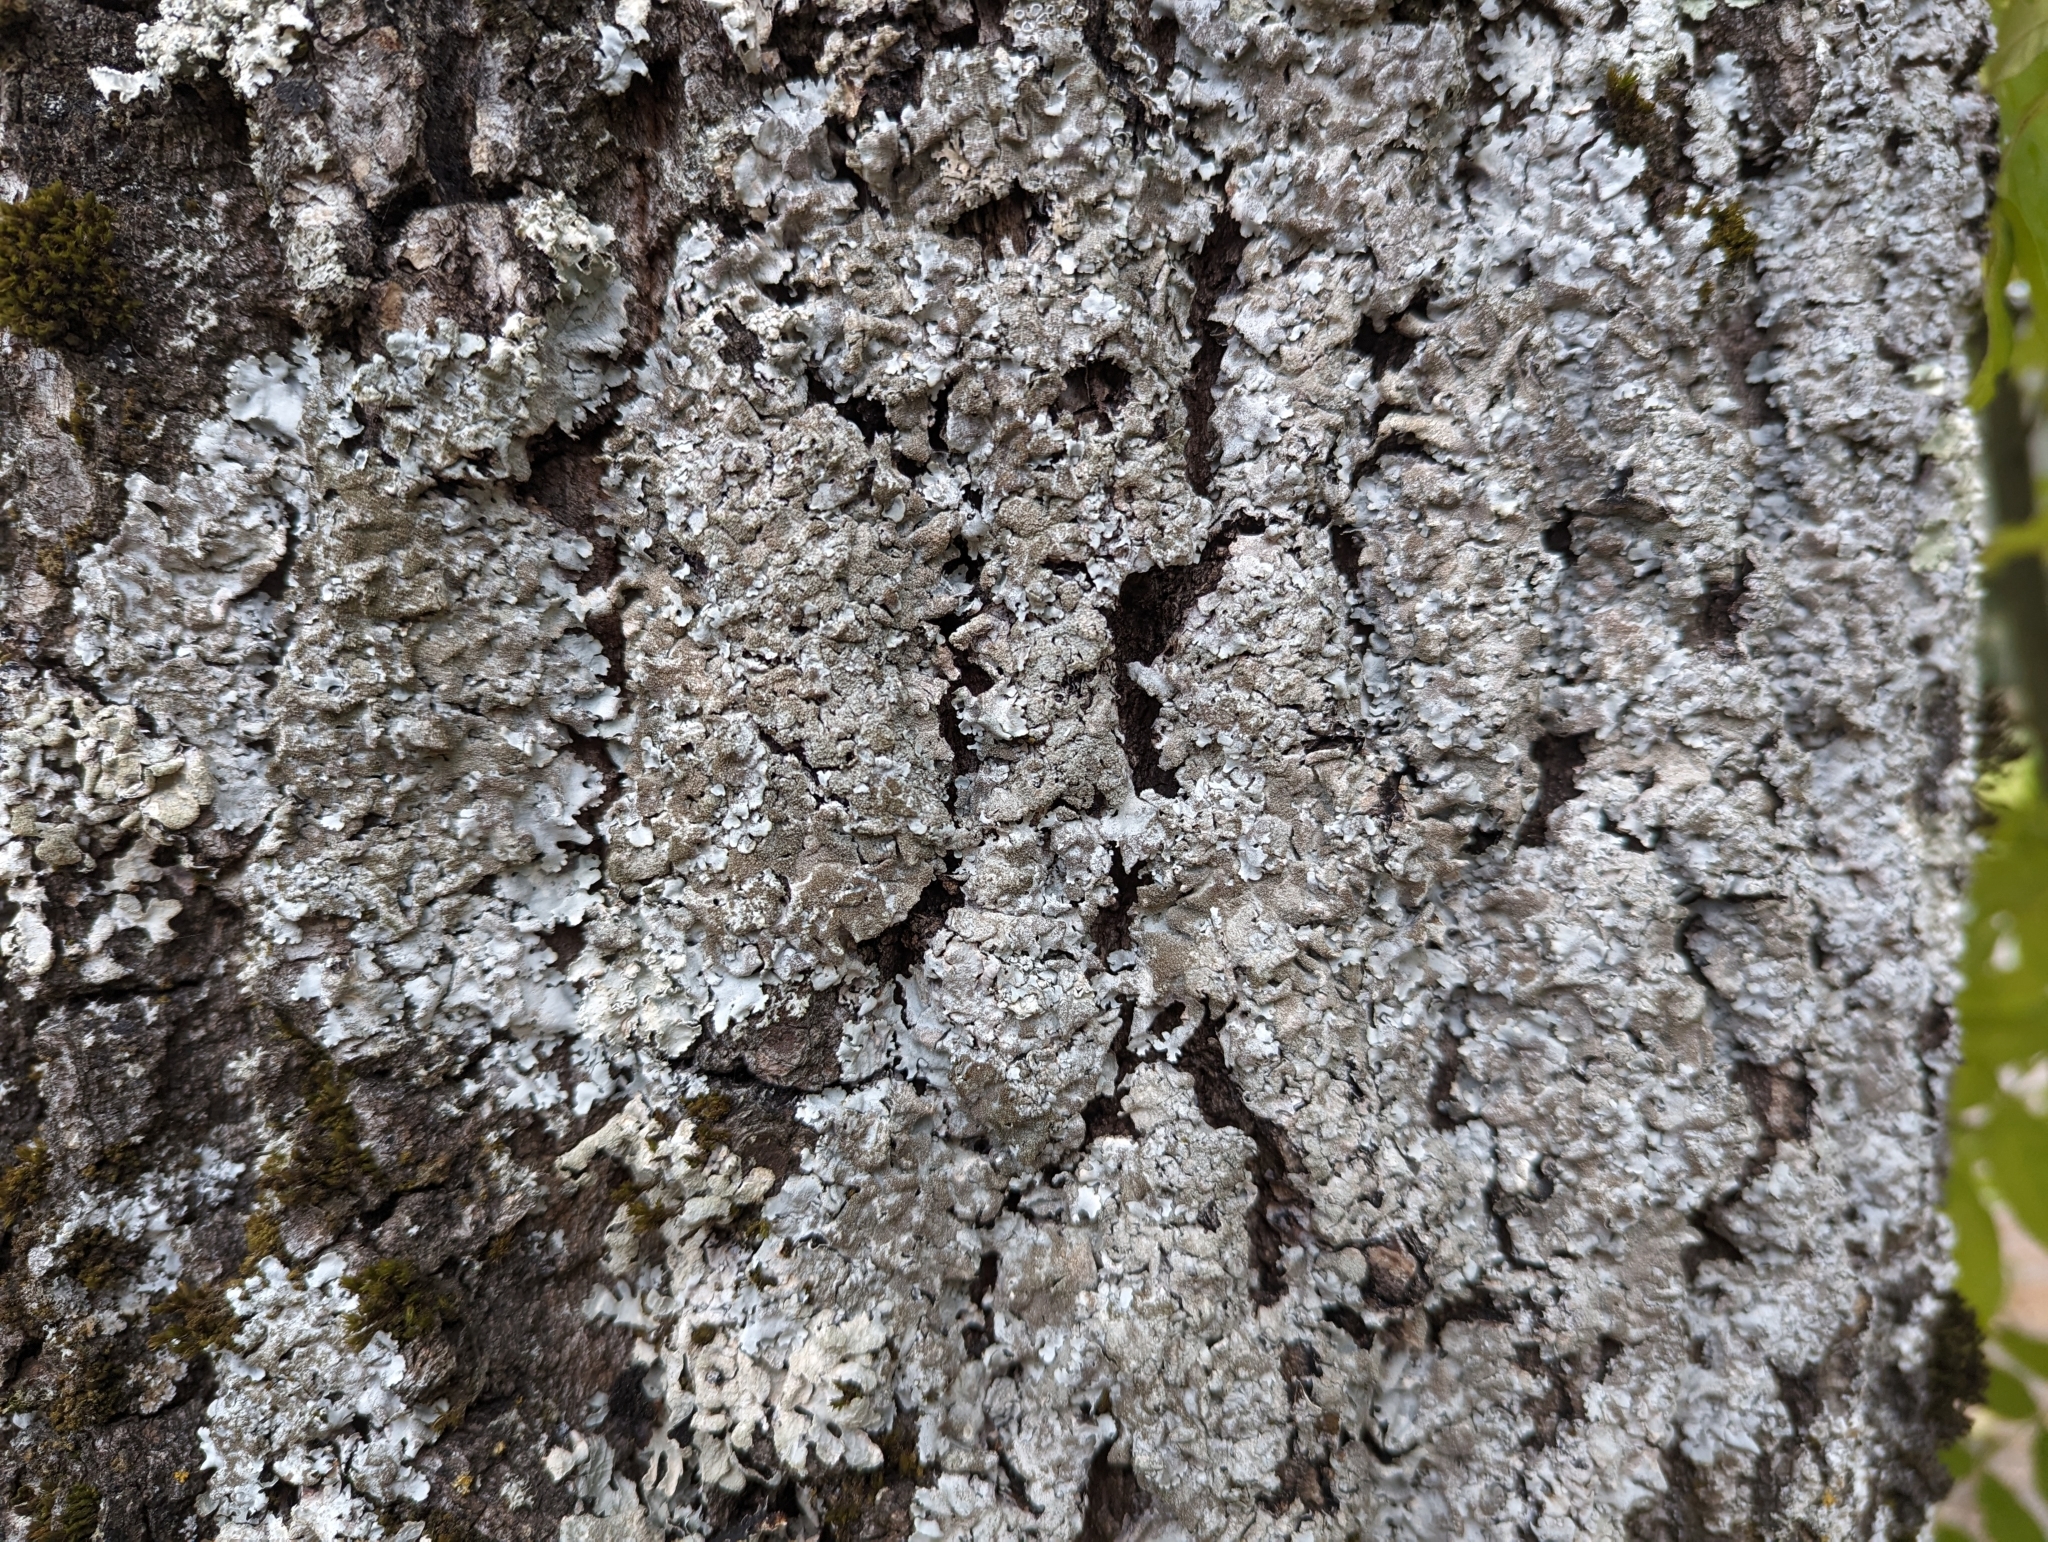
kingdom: Fungi
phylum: Ascomycota
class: Lecanoromycetes
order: Lecanorales
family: Parmeliaceae
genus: Parmelina
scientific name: Parmelina tiliacea
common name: Linden shield lichen
